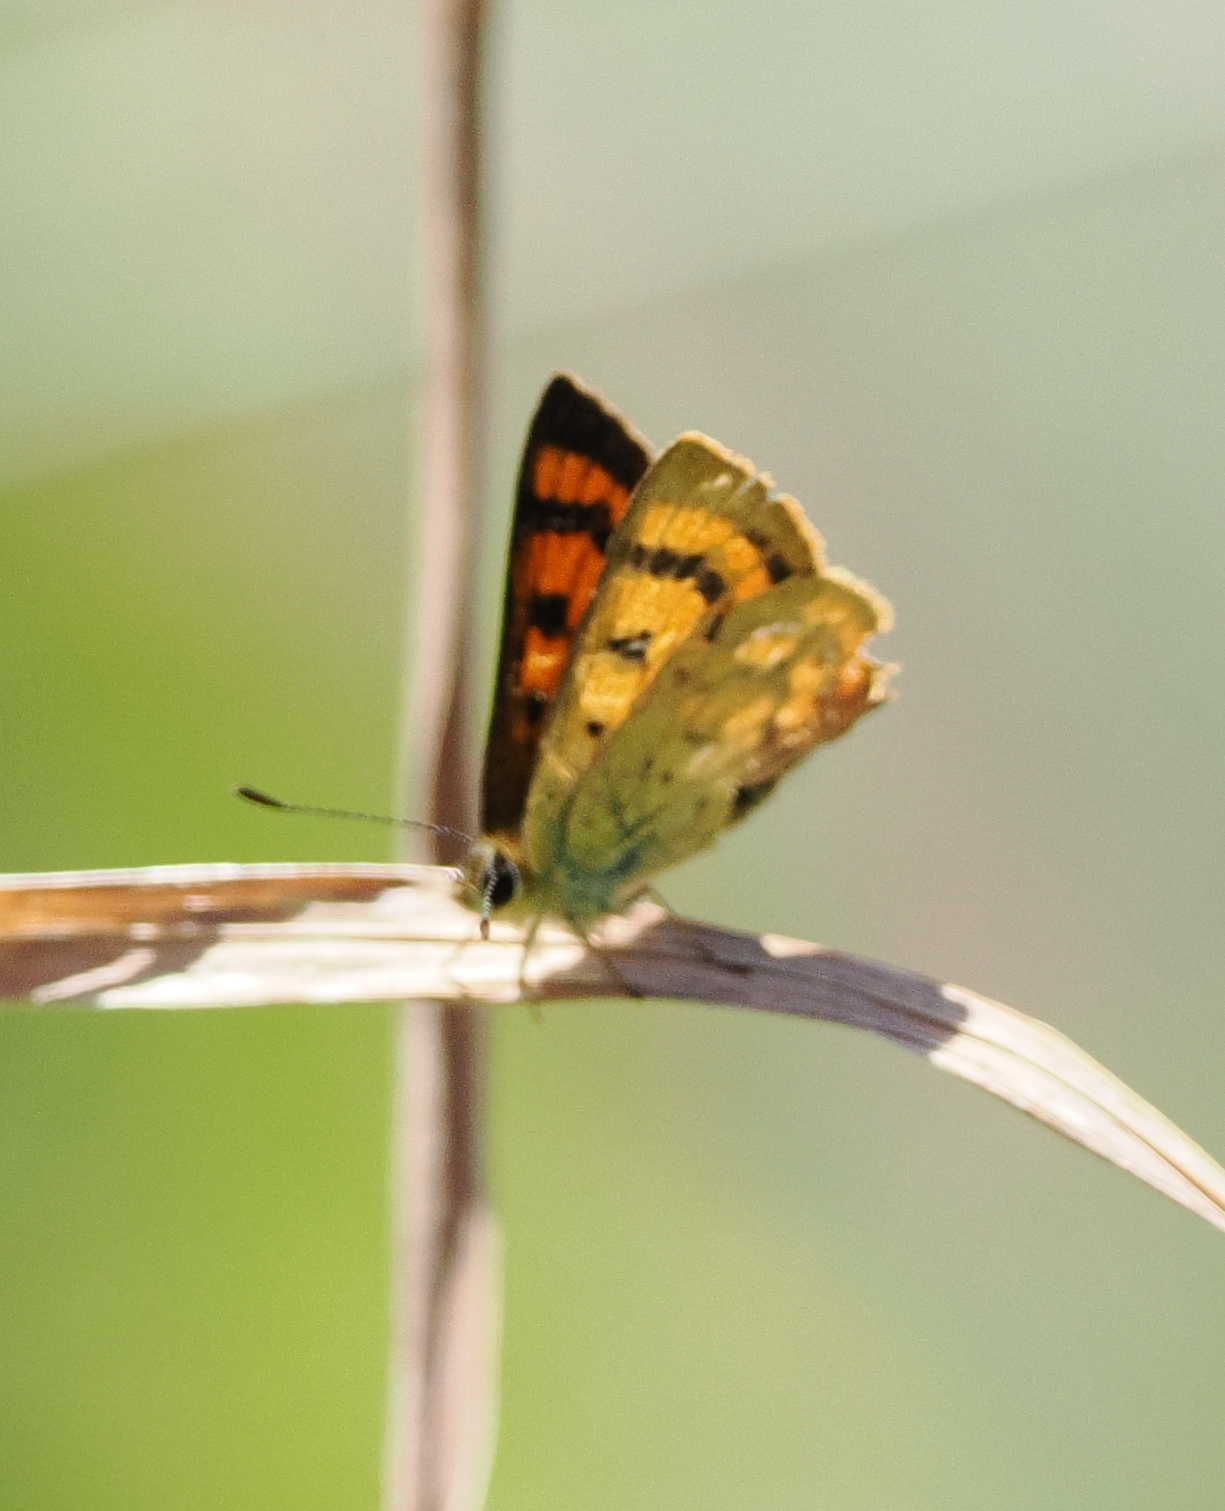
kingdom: Animalia
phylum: Arthropoda
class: Insecta
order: Lepidoptera
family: Lycaenidae
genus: Lycaena
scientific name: Lycaena salustius
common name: North island coastal copper
